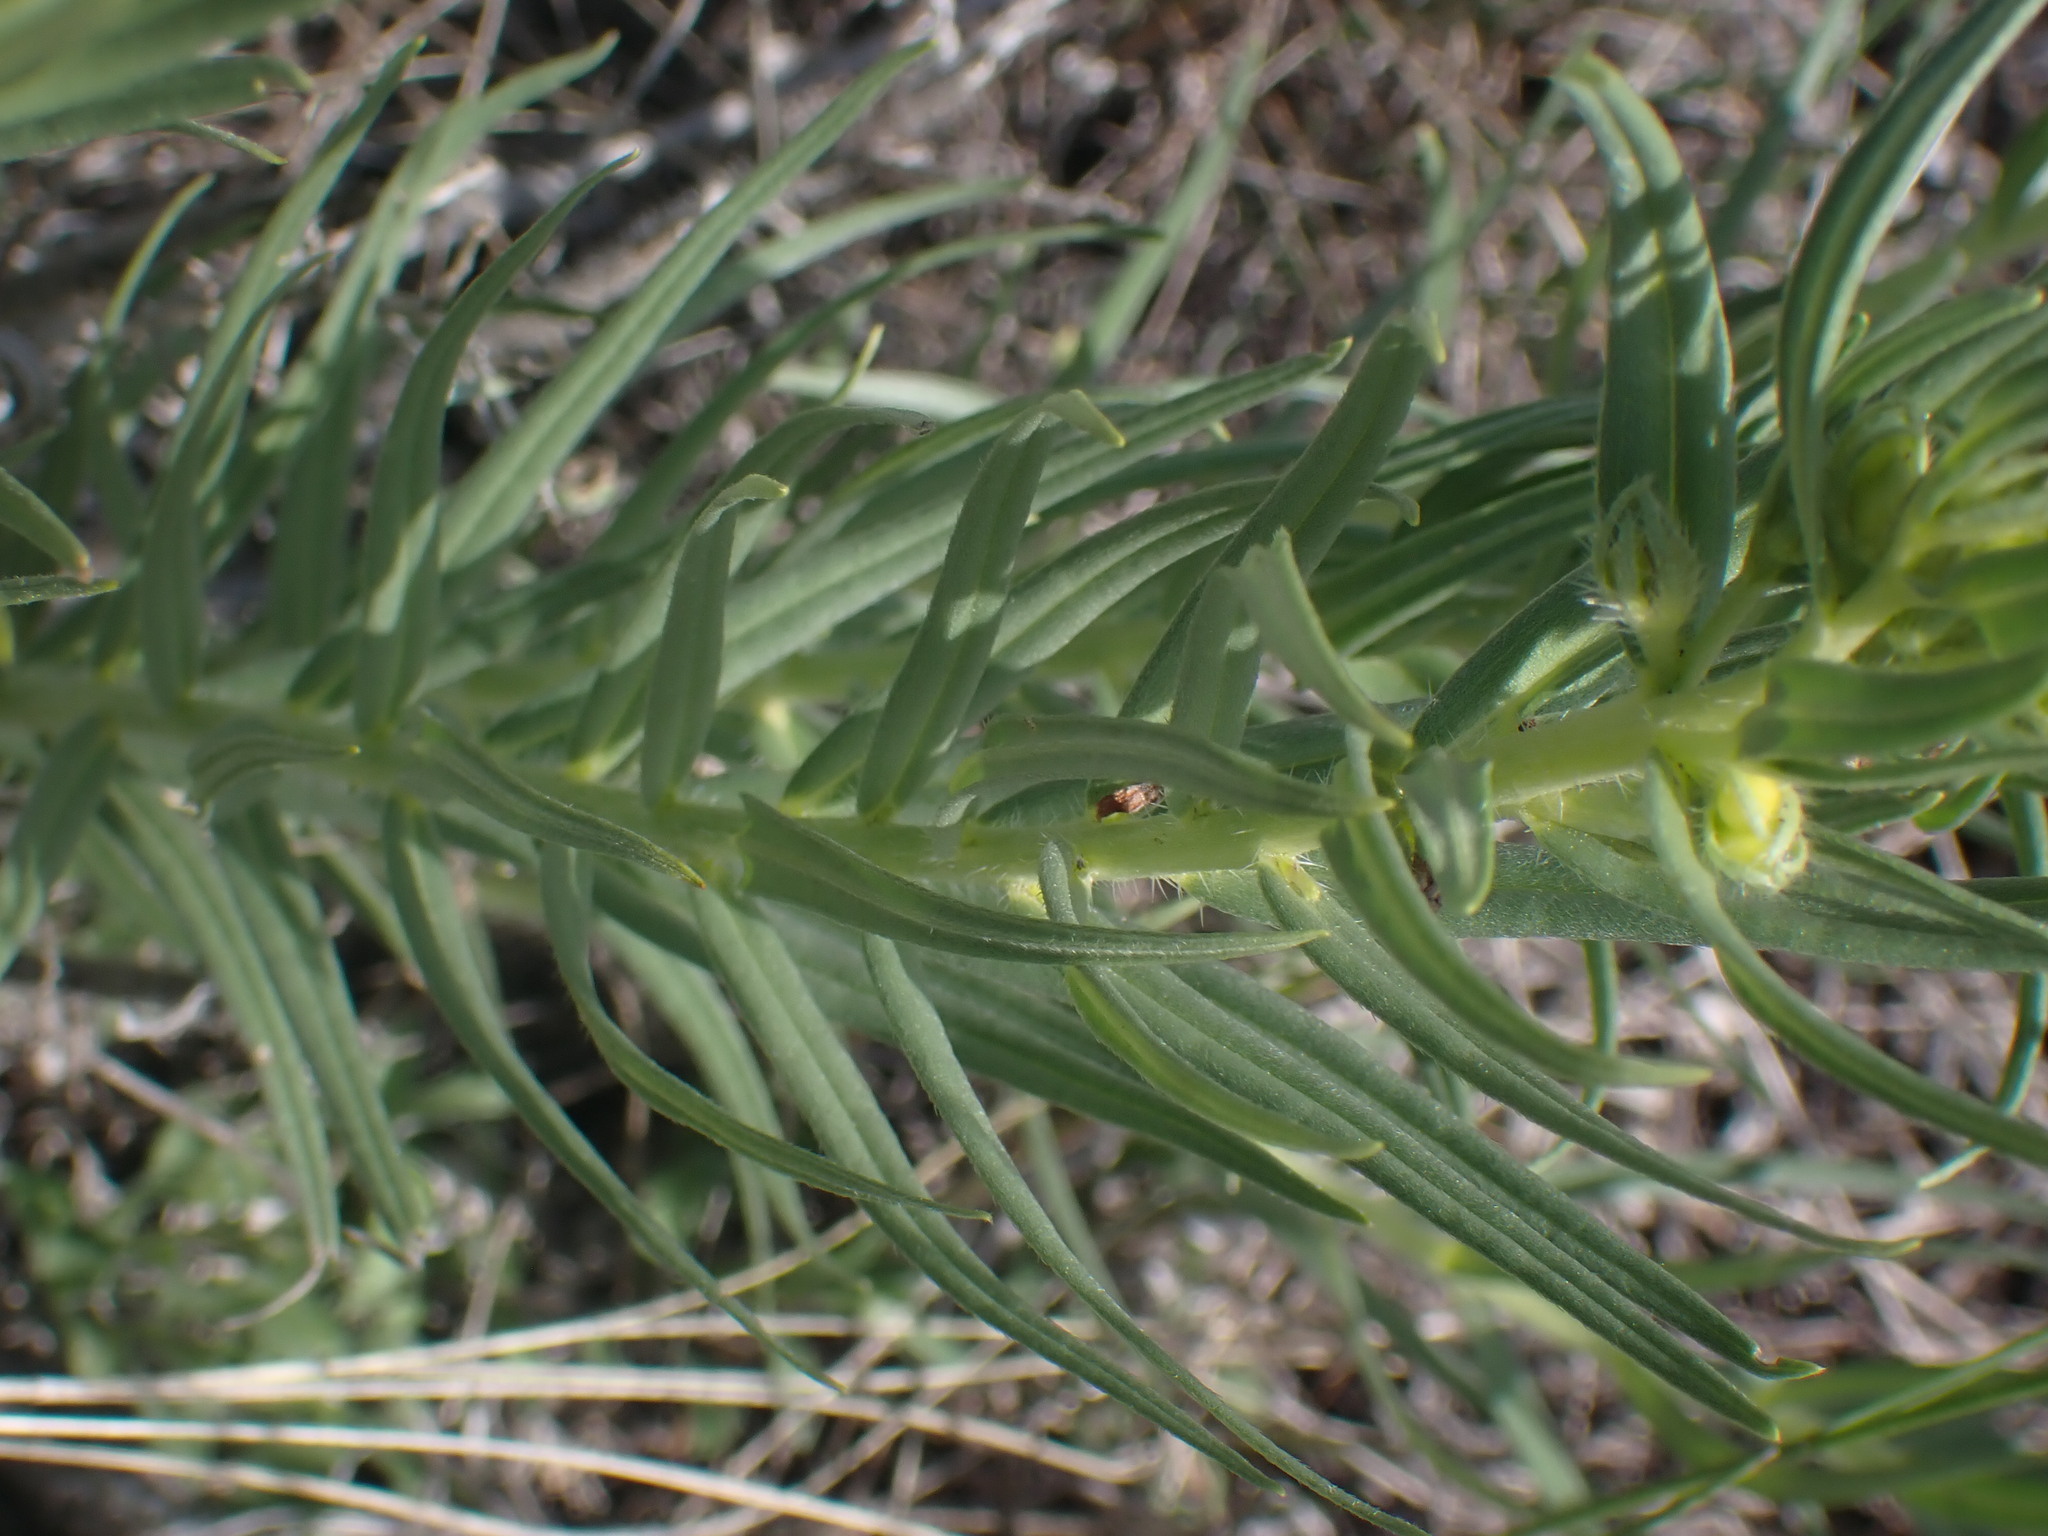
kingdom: Plantae
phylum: Tracheophyta
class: Magnoliopsida
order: Boraginales
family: Boraginaceae
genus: Lithospermum
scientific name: Lithospermum ruderale
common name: Western gromwell
